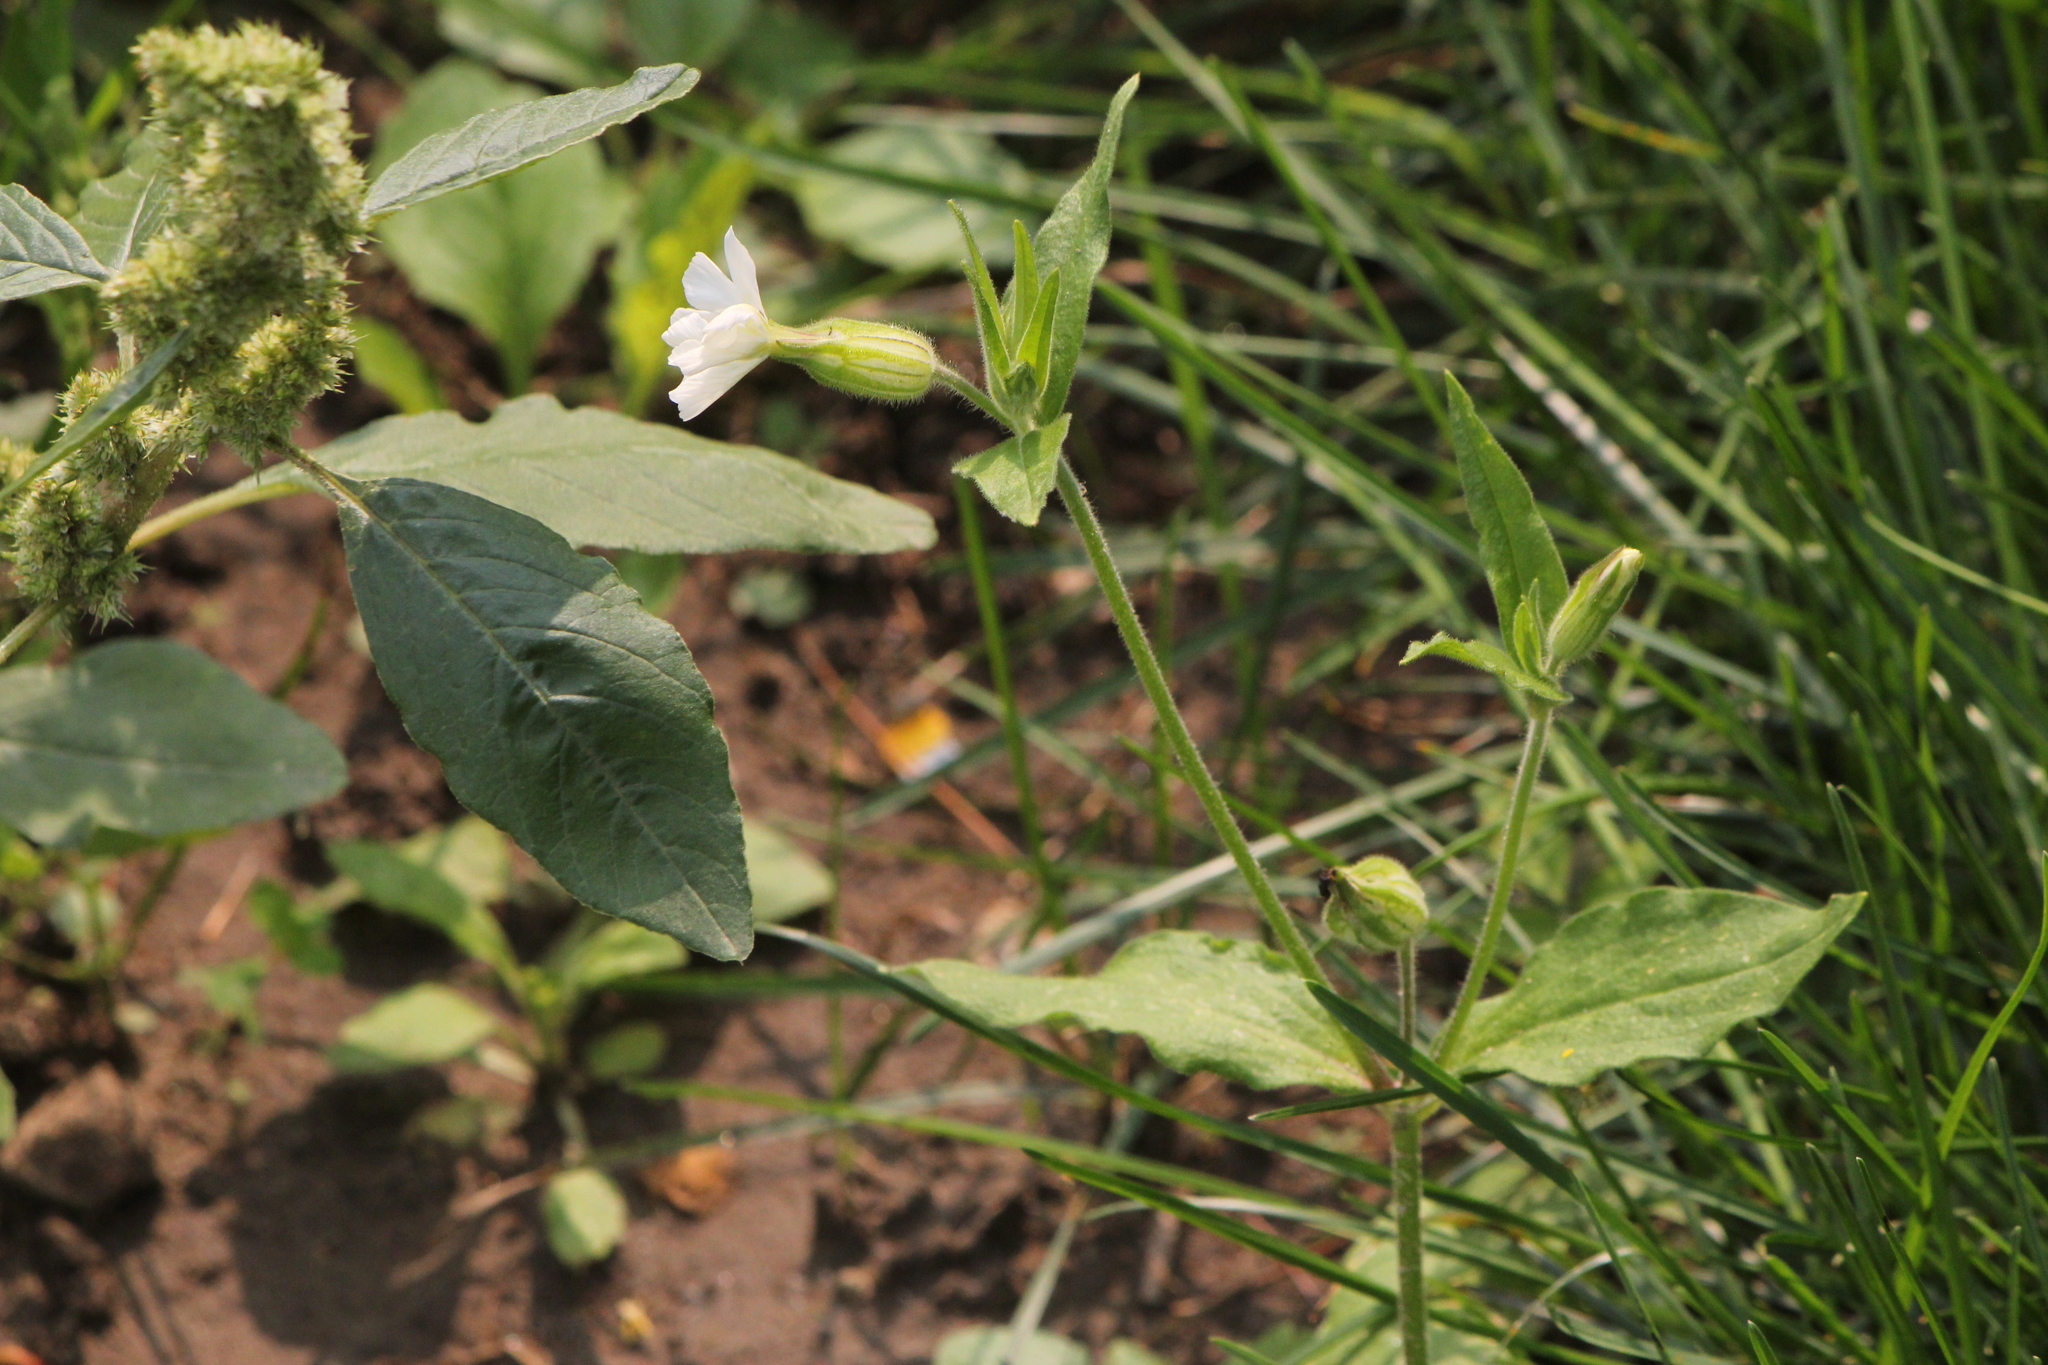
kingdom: Plantae
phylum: Tracheophyta
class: Magnoliopsida
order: Caryophyllales
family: Caryophyllaceae
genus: Silene
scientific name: Silene latifolia
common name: White campion
